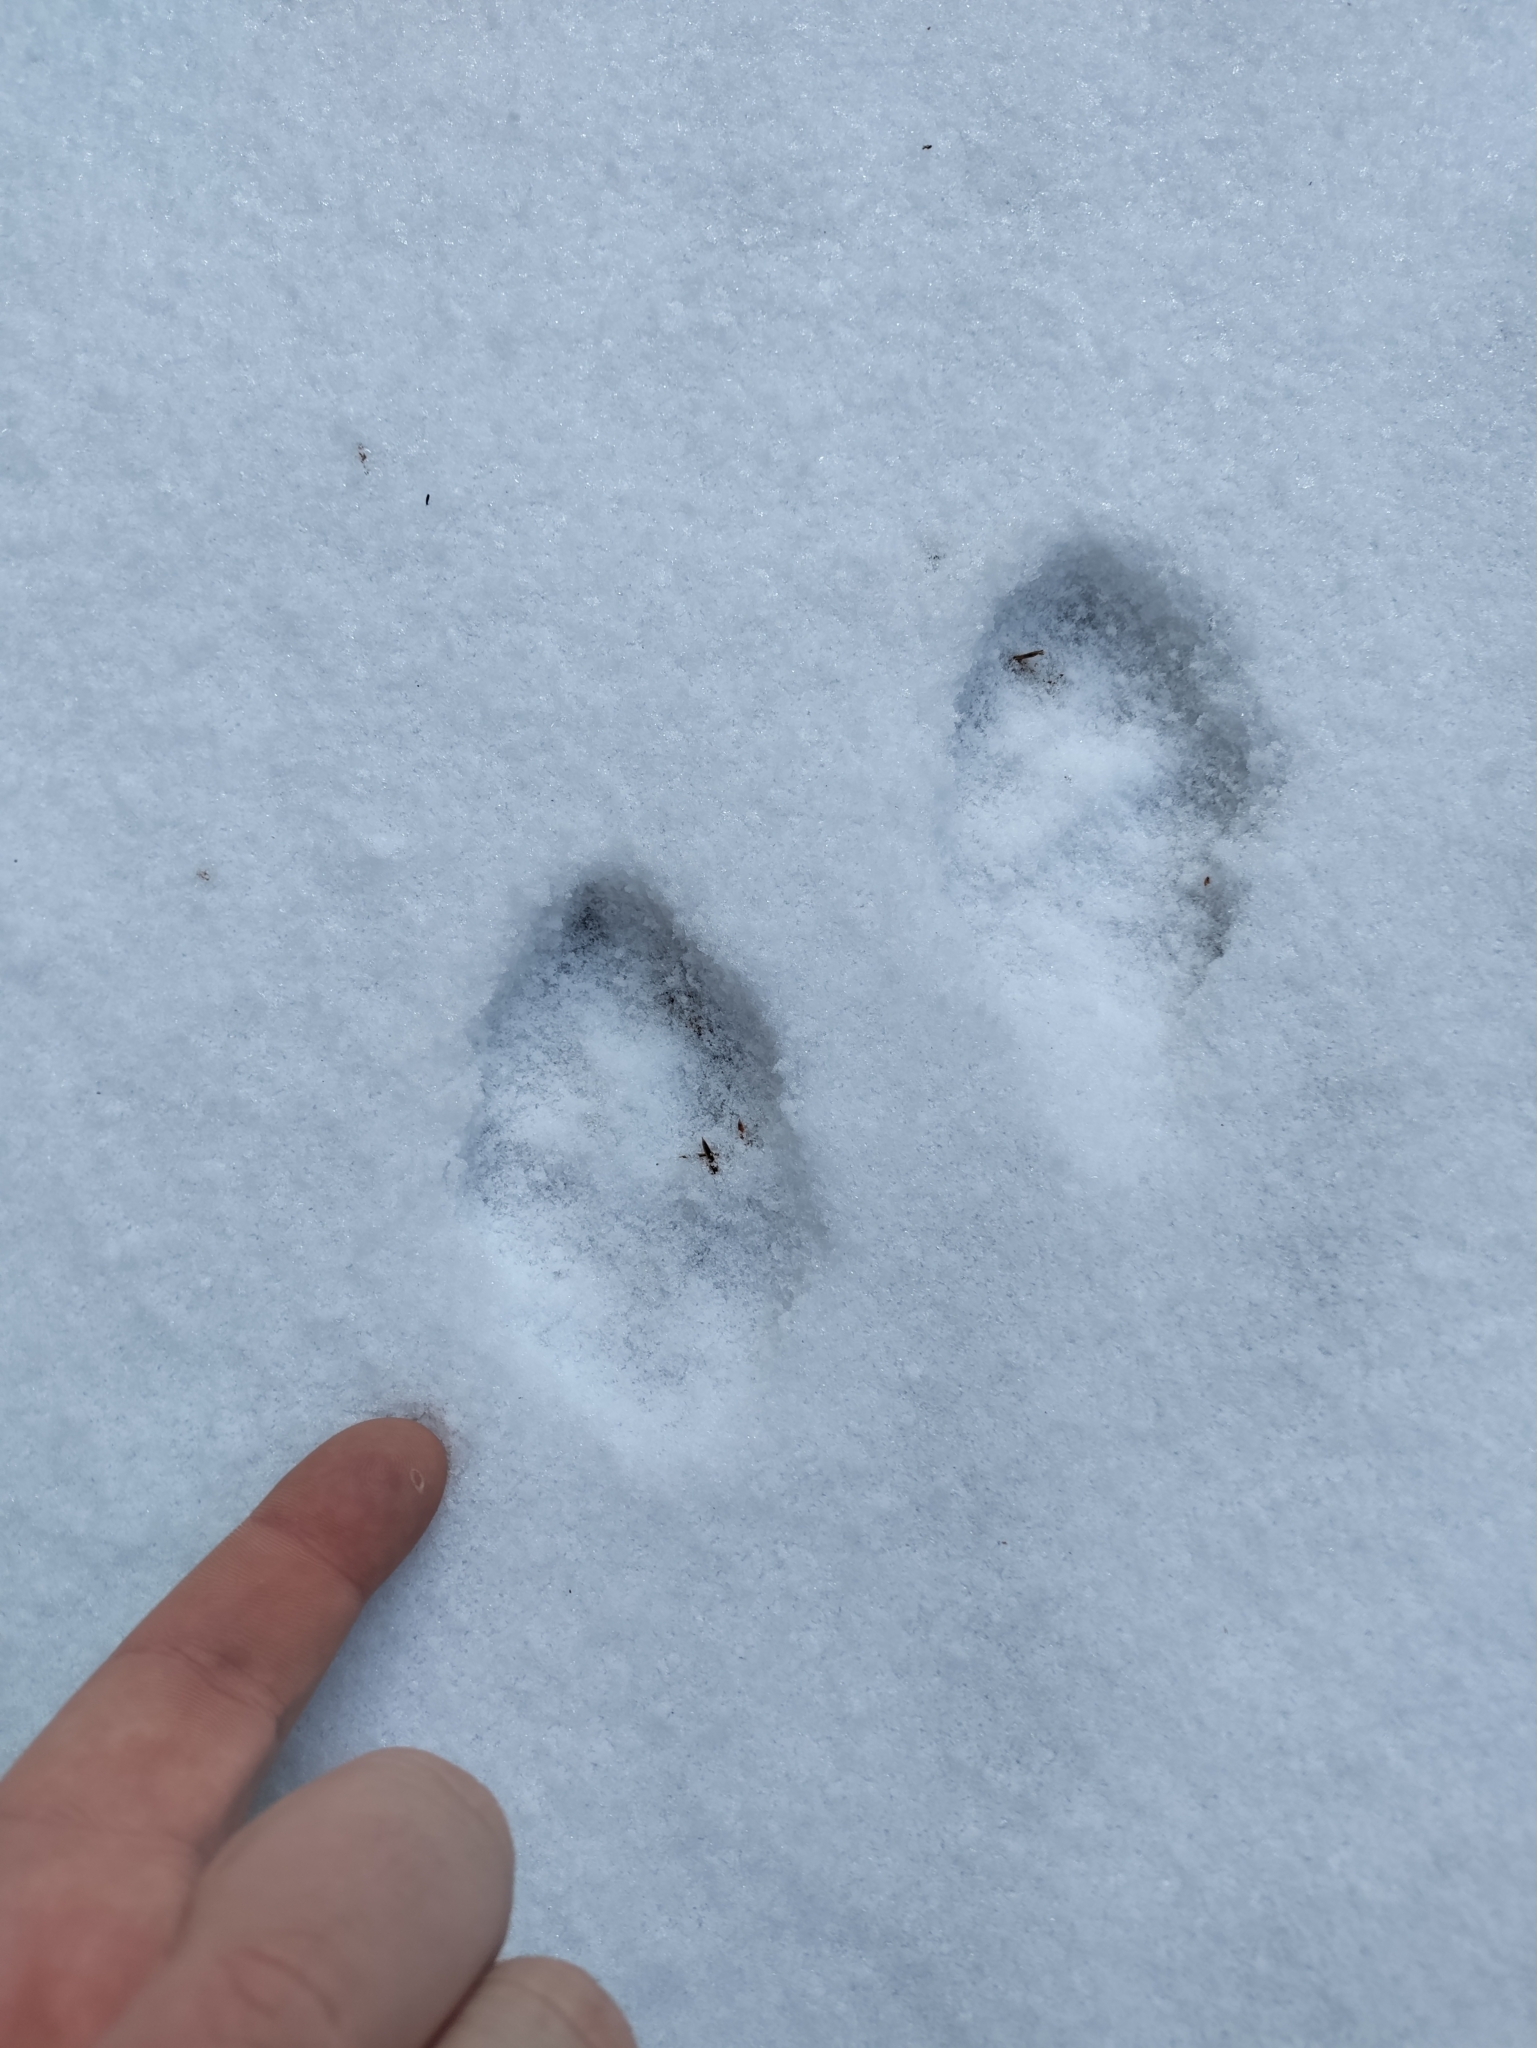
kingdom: Animalia
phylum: Chordata
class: Mammalia
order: Lagomorpha
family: Leporidae
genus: Lepus
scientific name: Lepus europaeus
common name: European hare
